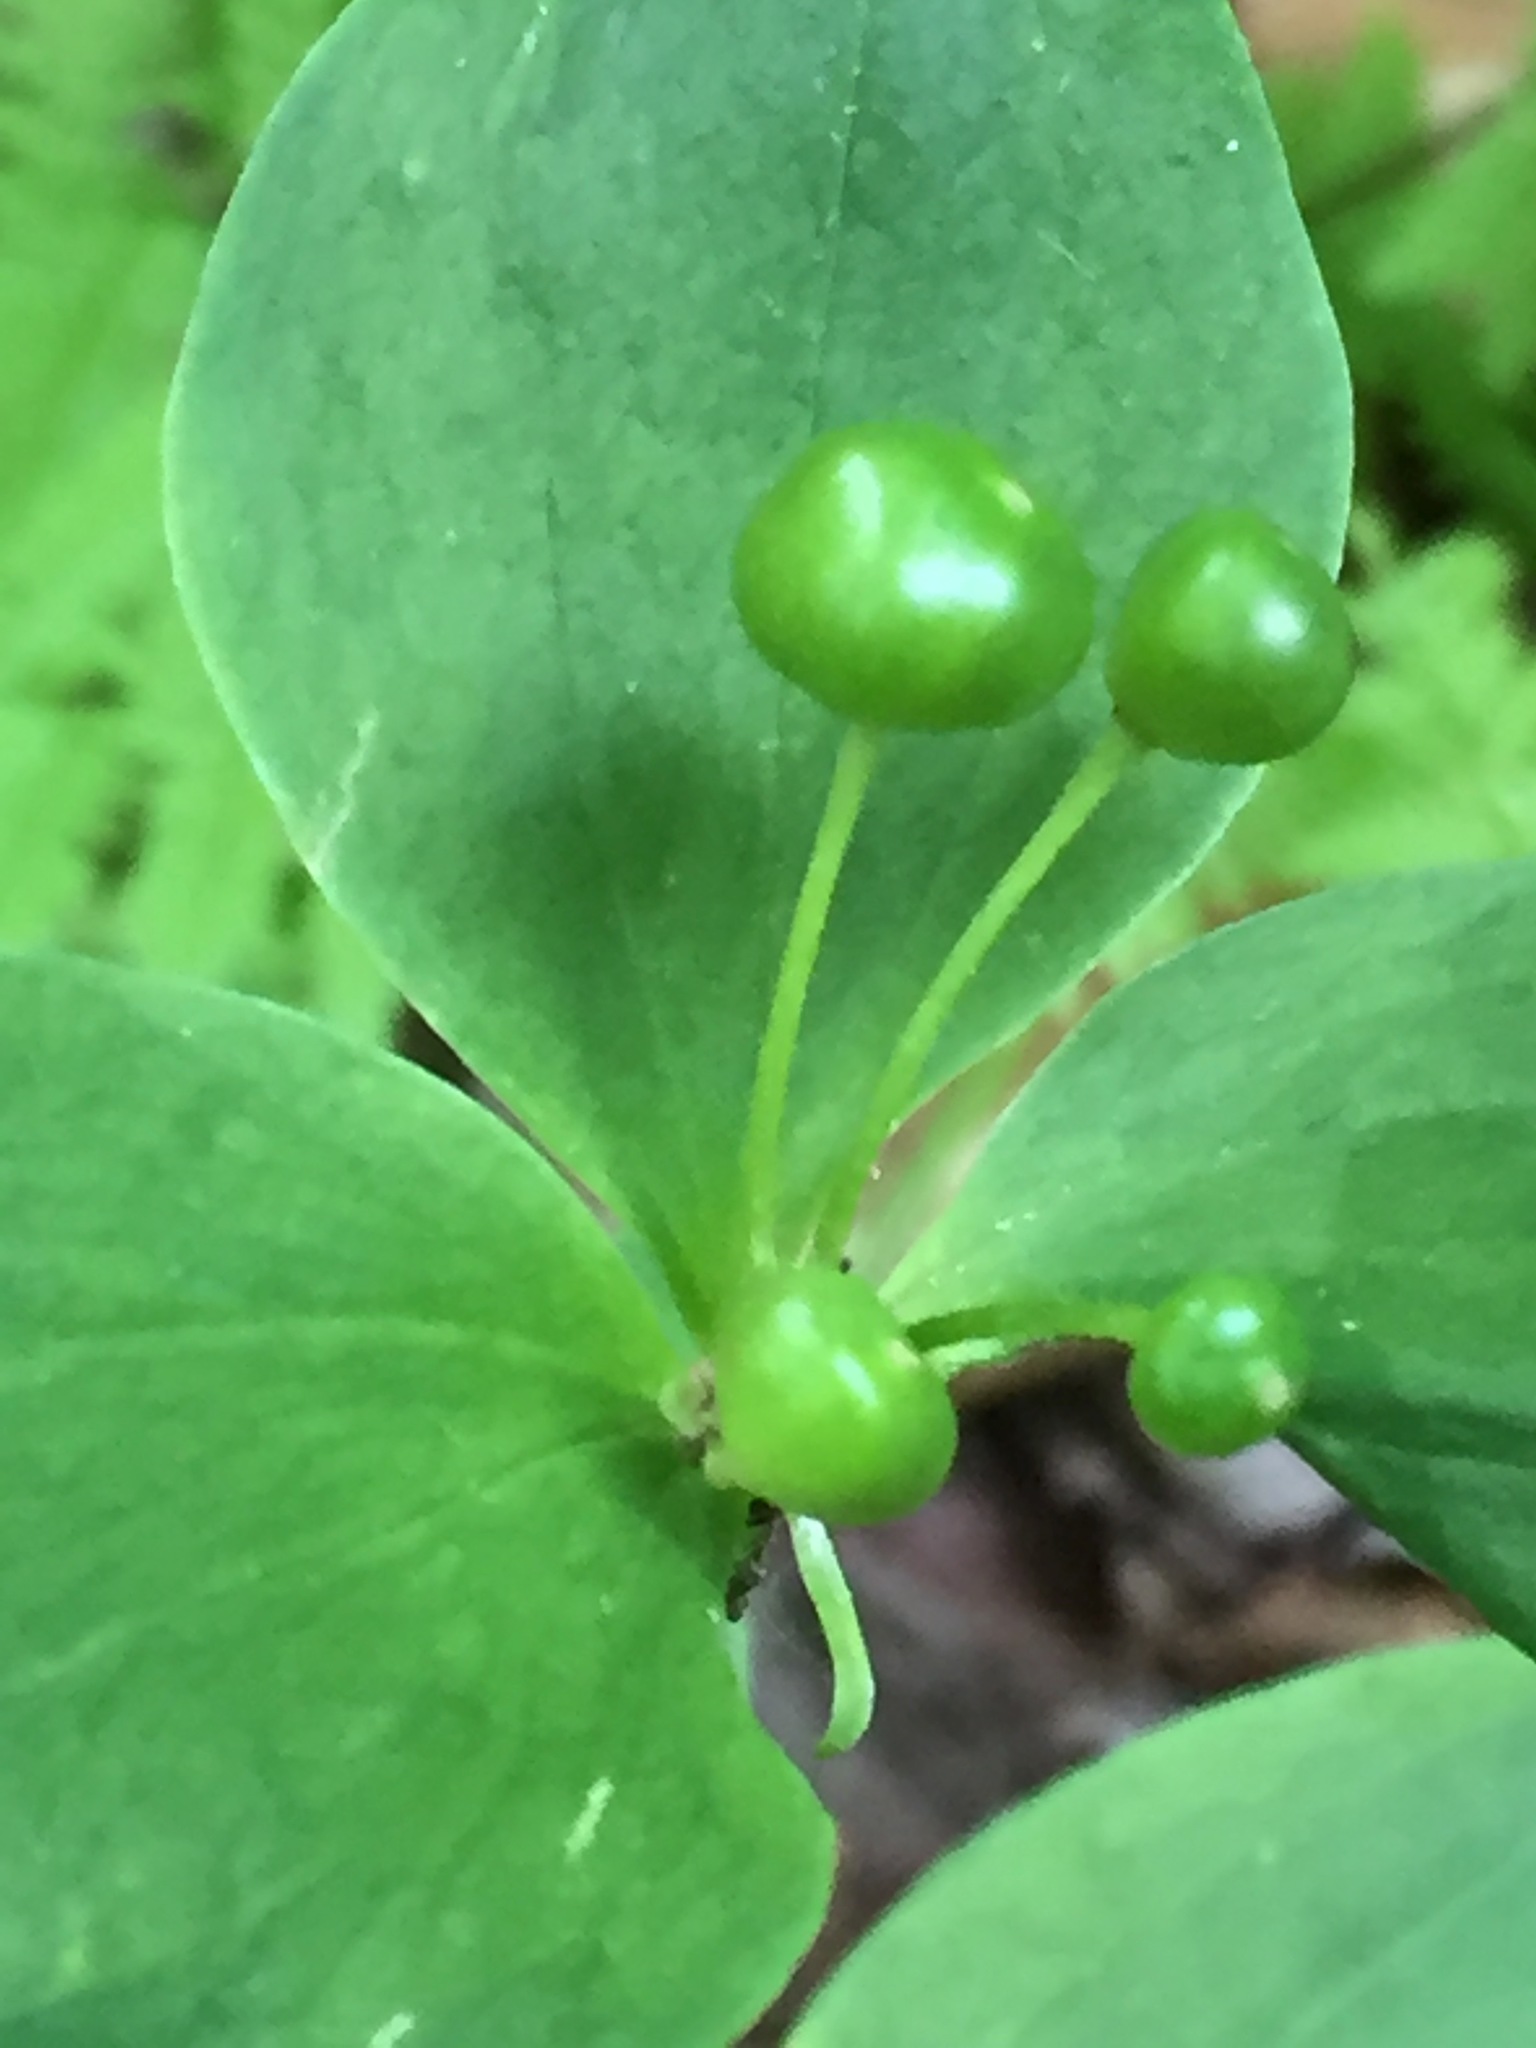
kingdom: Plantae
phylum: Tracheophyta
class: Liliopsida
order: Liliales
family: Liliaceae
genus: Medeola
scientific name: Medeola virginiana
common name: Indian cucumber-root
